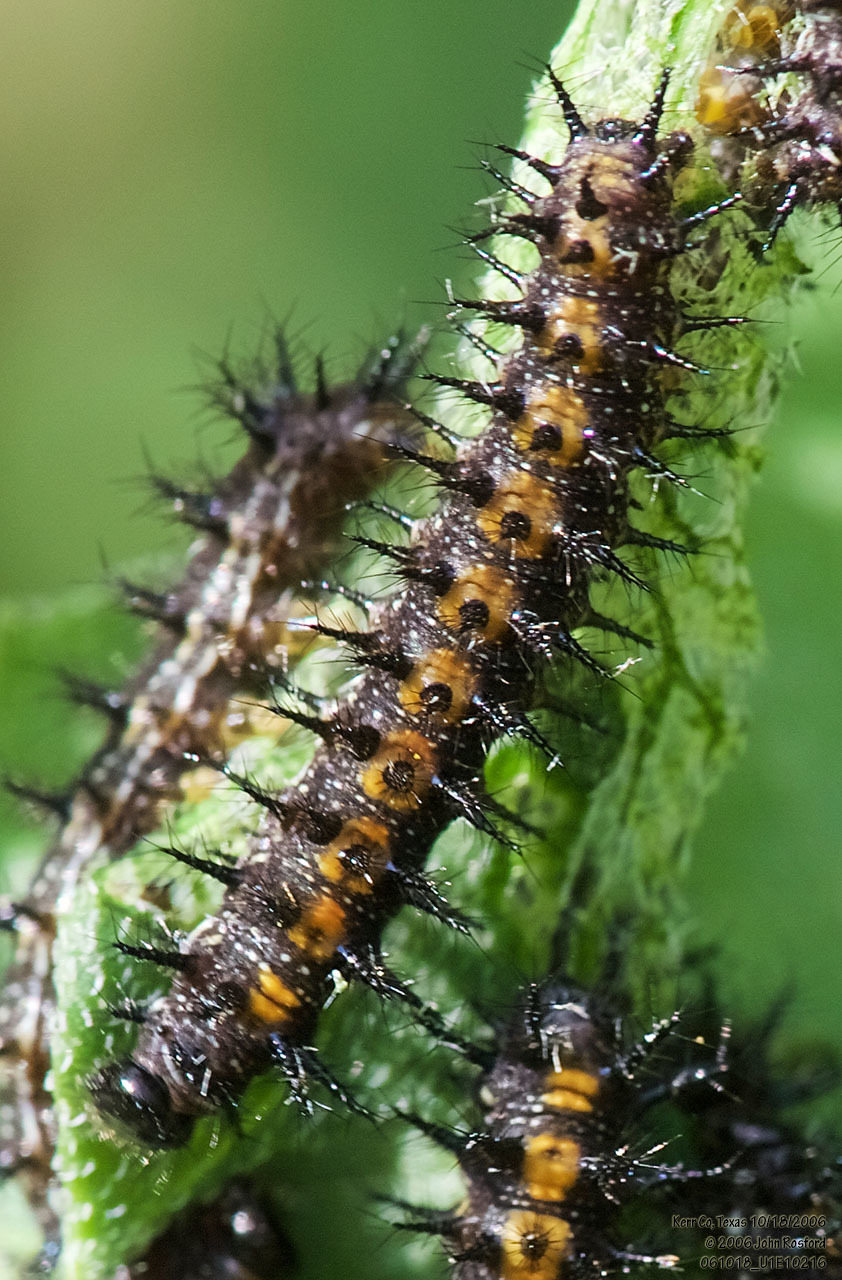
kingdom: Animalia
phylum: Arthropoda
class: Insecta
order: Lepidoptera
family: Nymphalidae
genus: Chlosyne
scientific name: Chlosyne lacinia
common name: Bordered patch
